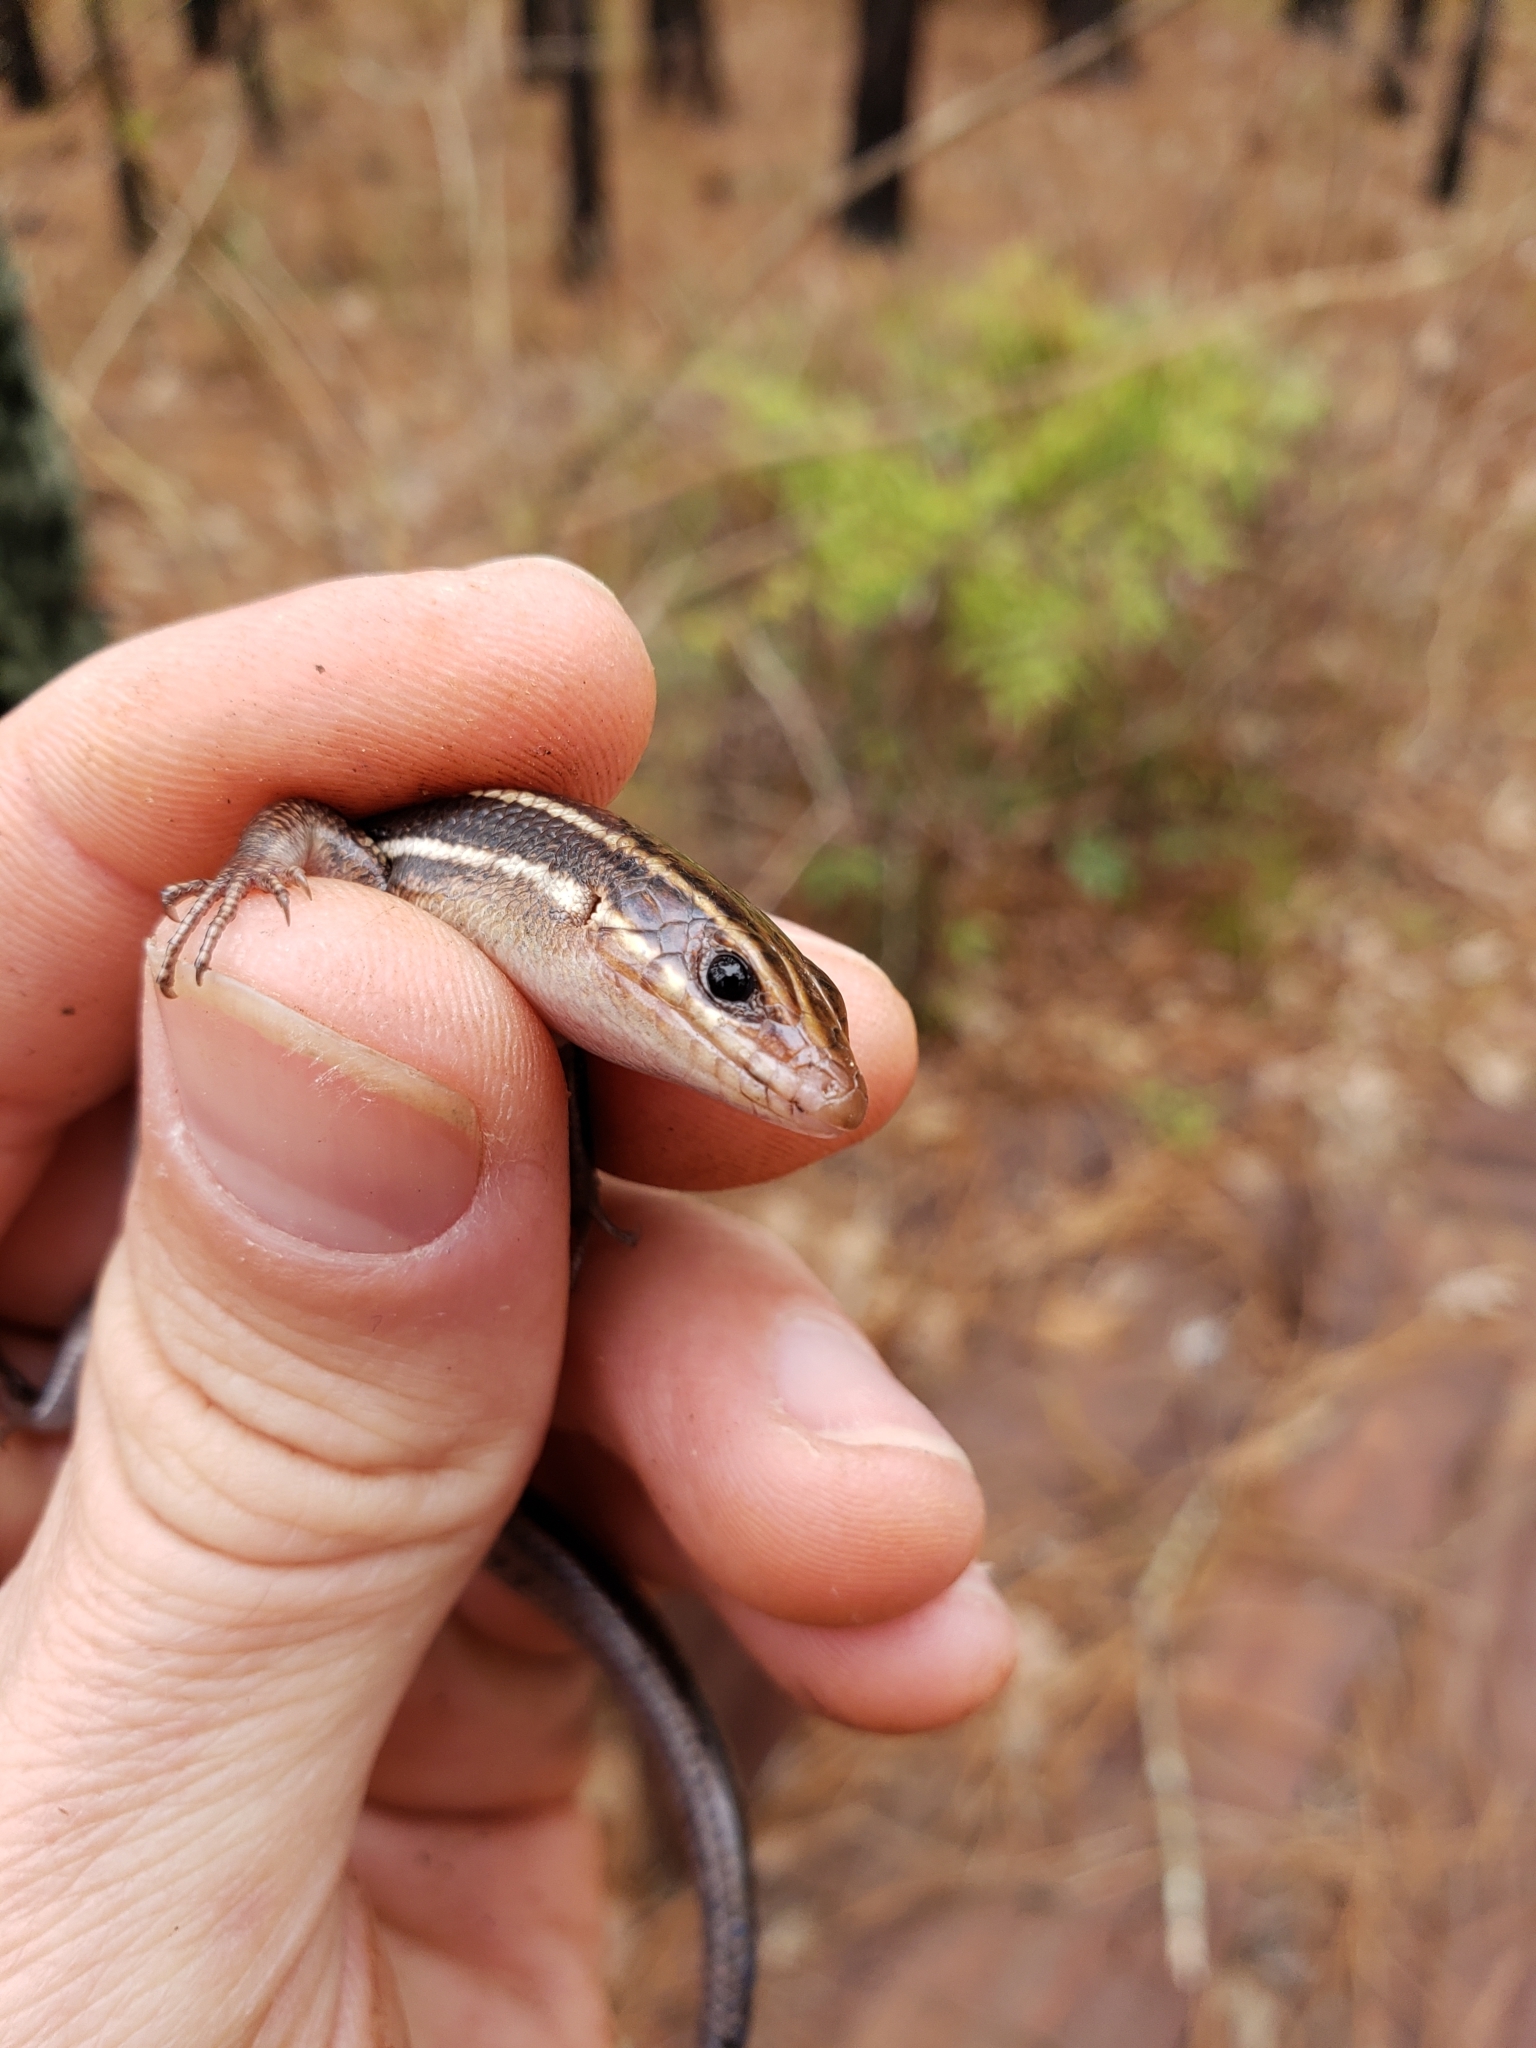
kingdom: Animalia
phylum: Chordata
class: Squamata
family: Scincidae
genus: Plestiodon
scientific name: Plestiodon laticeps
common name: Broadhead skink
